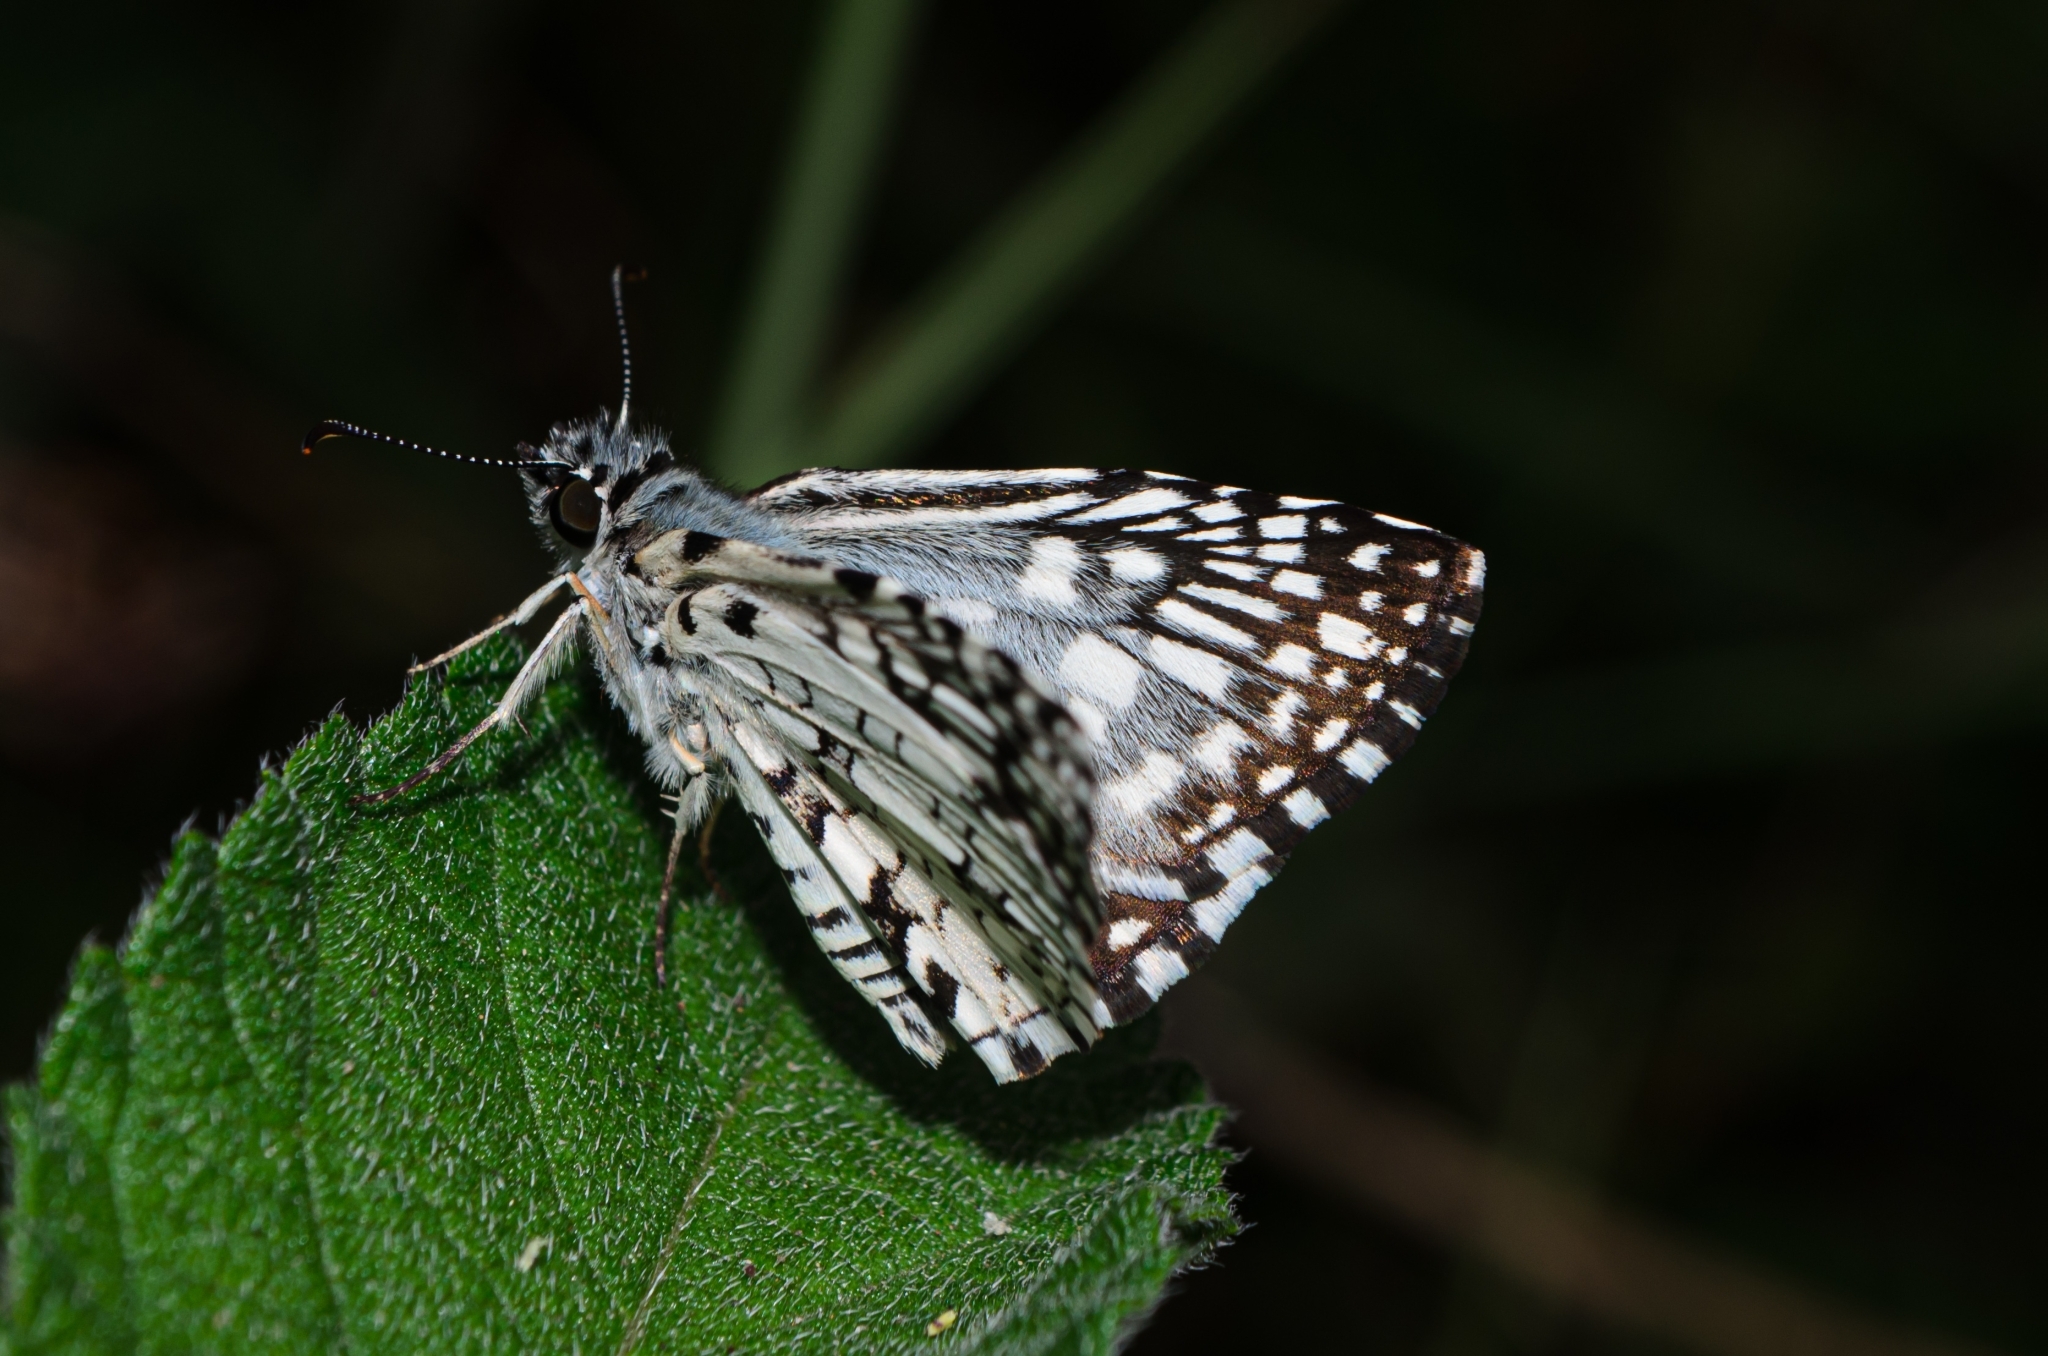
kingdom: Animalia
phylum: Arthropoda
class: Insecta
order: Lepidoptera
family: Hesperiidae
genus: Pyrgus
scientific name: Pyrgus oileus
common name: Tropical checkered-skipper
